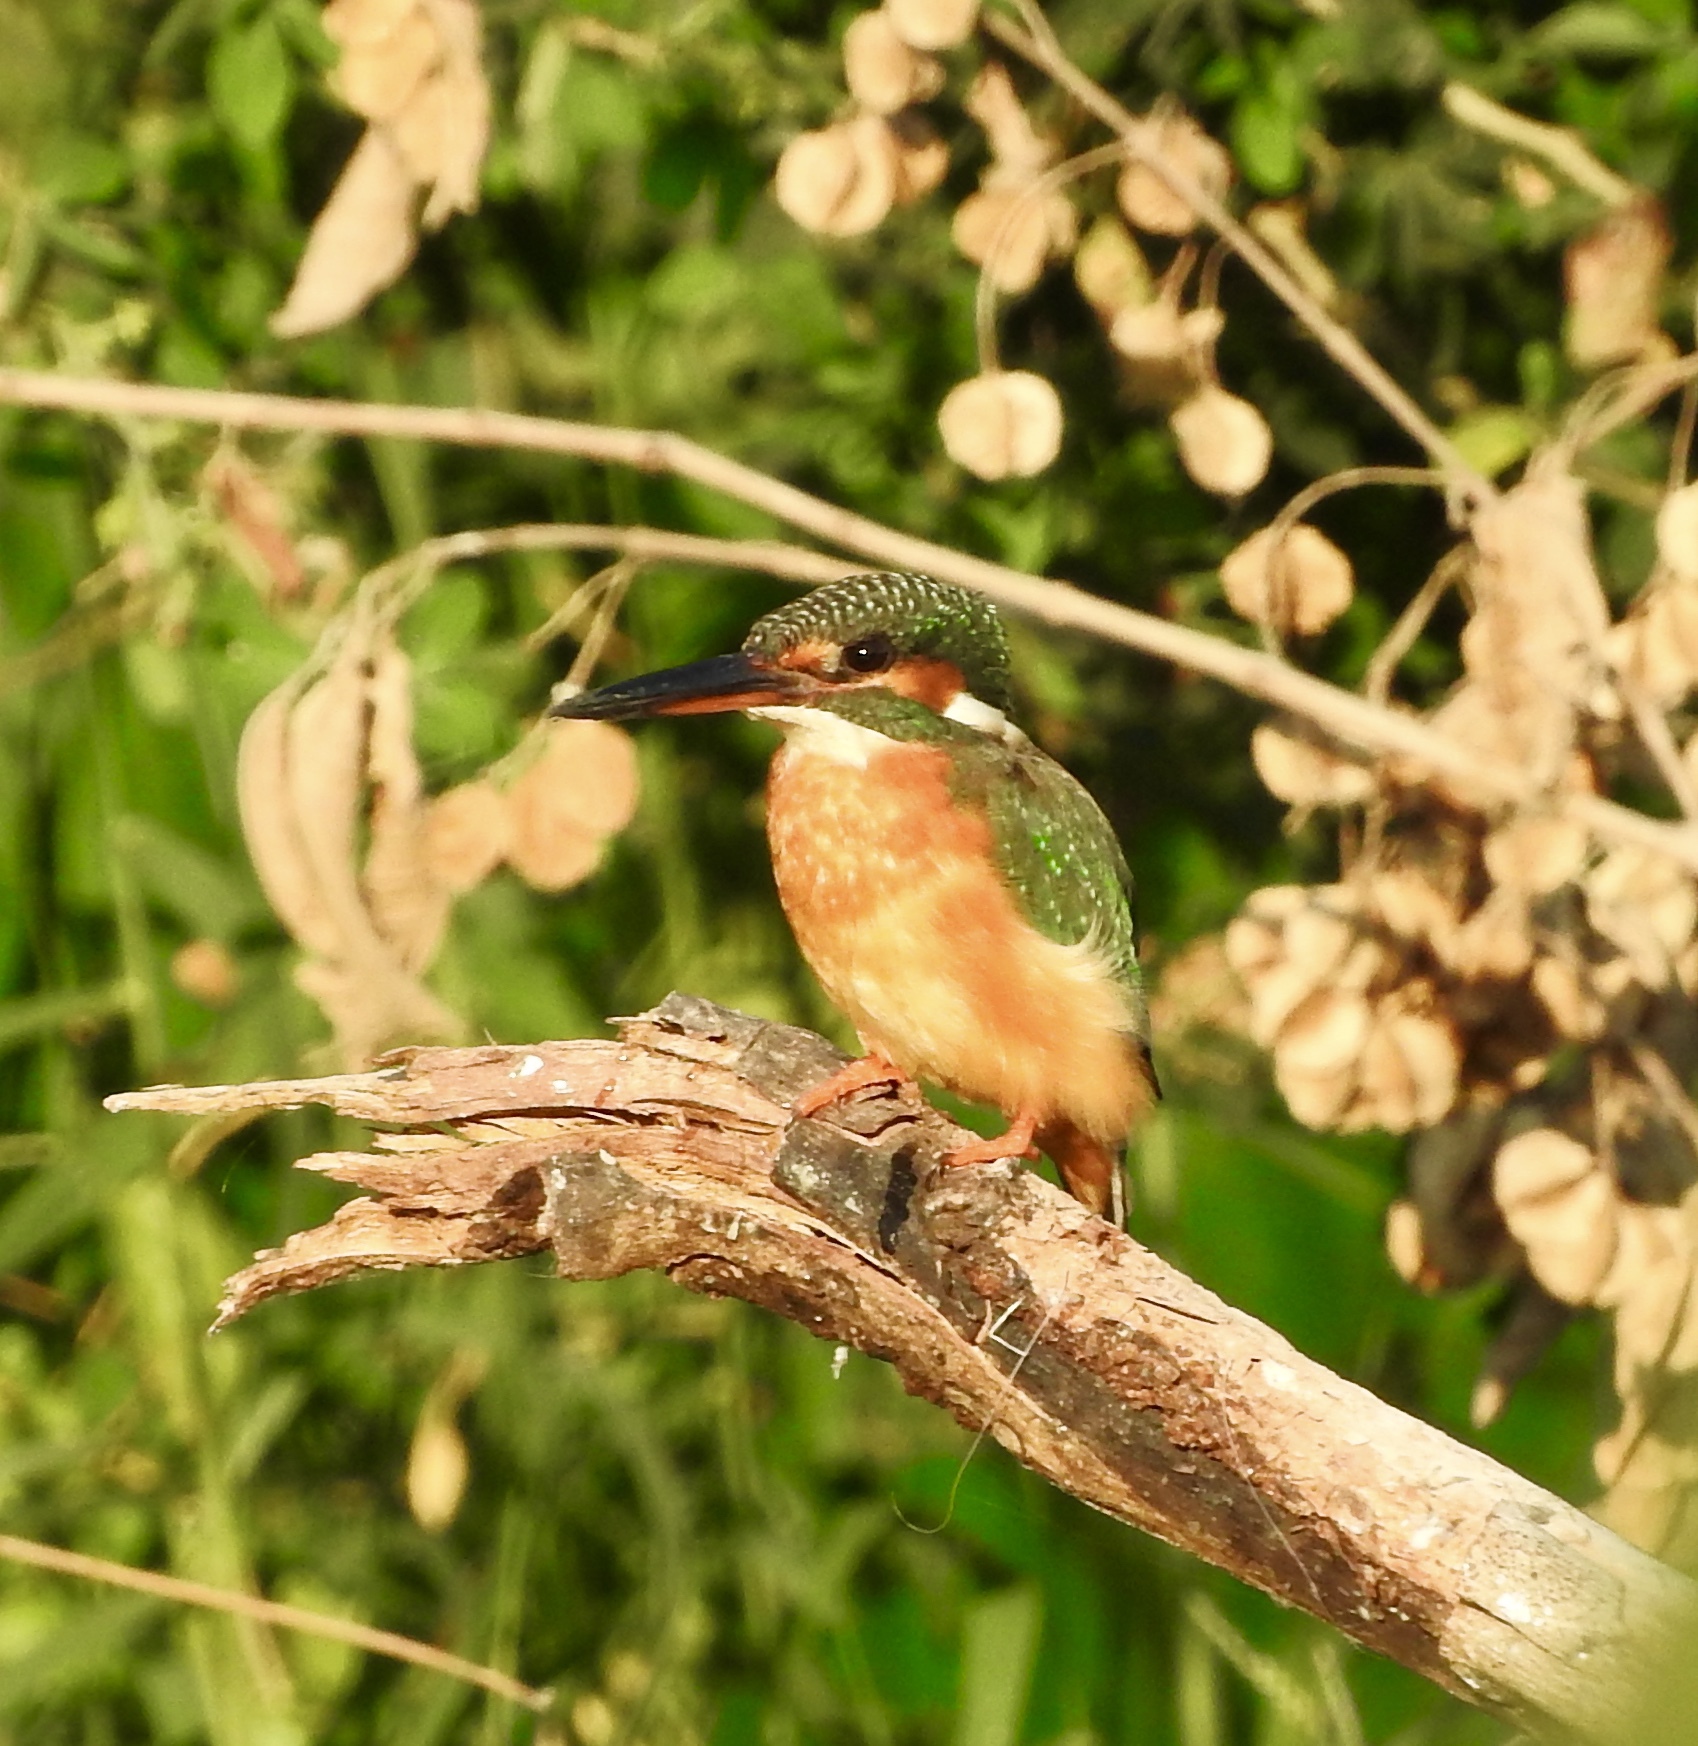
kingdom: Animalia
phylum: Chordata
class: Aves
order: Coraciiformes
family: Alcedinidae
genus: Alcedo
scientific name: Alcedo atthis
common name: Common kingfisher
